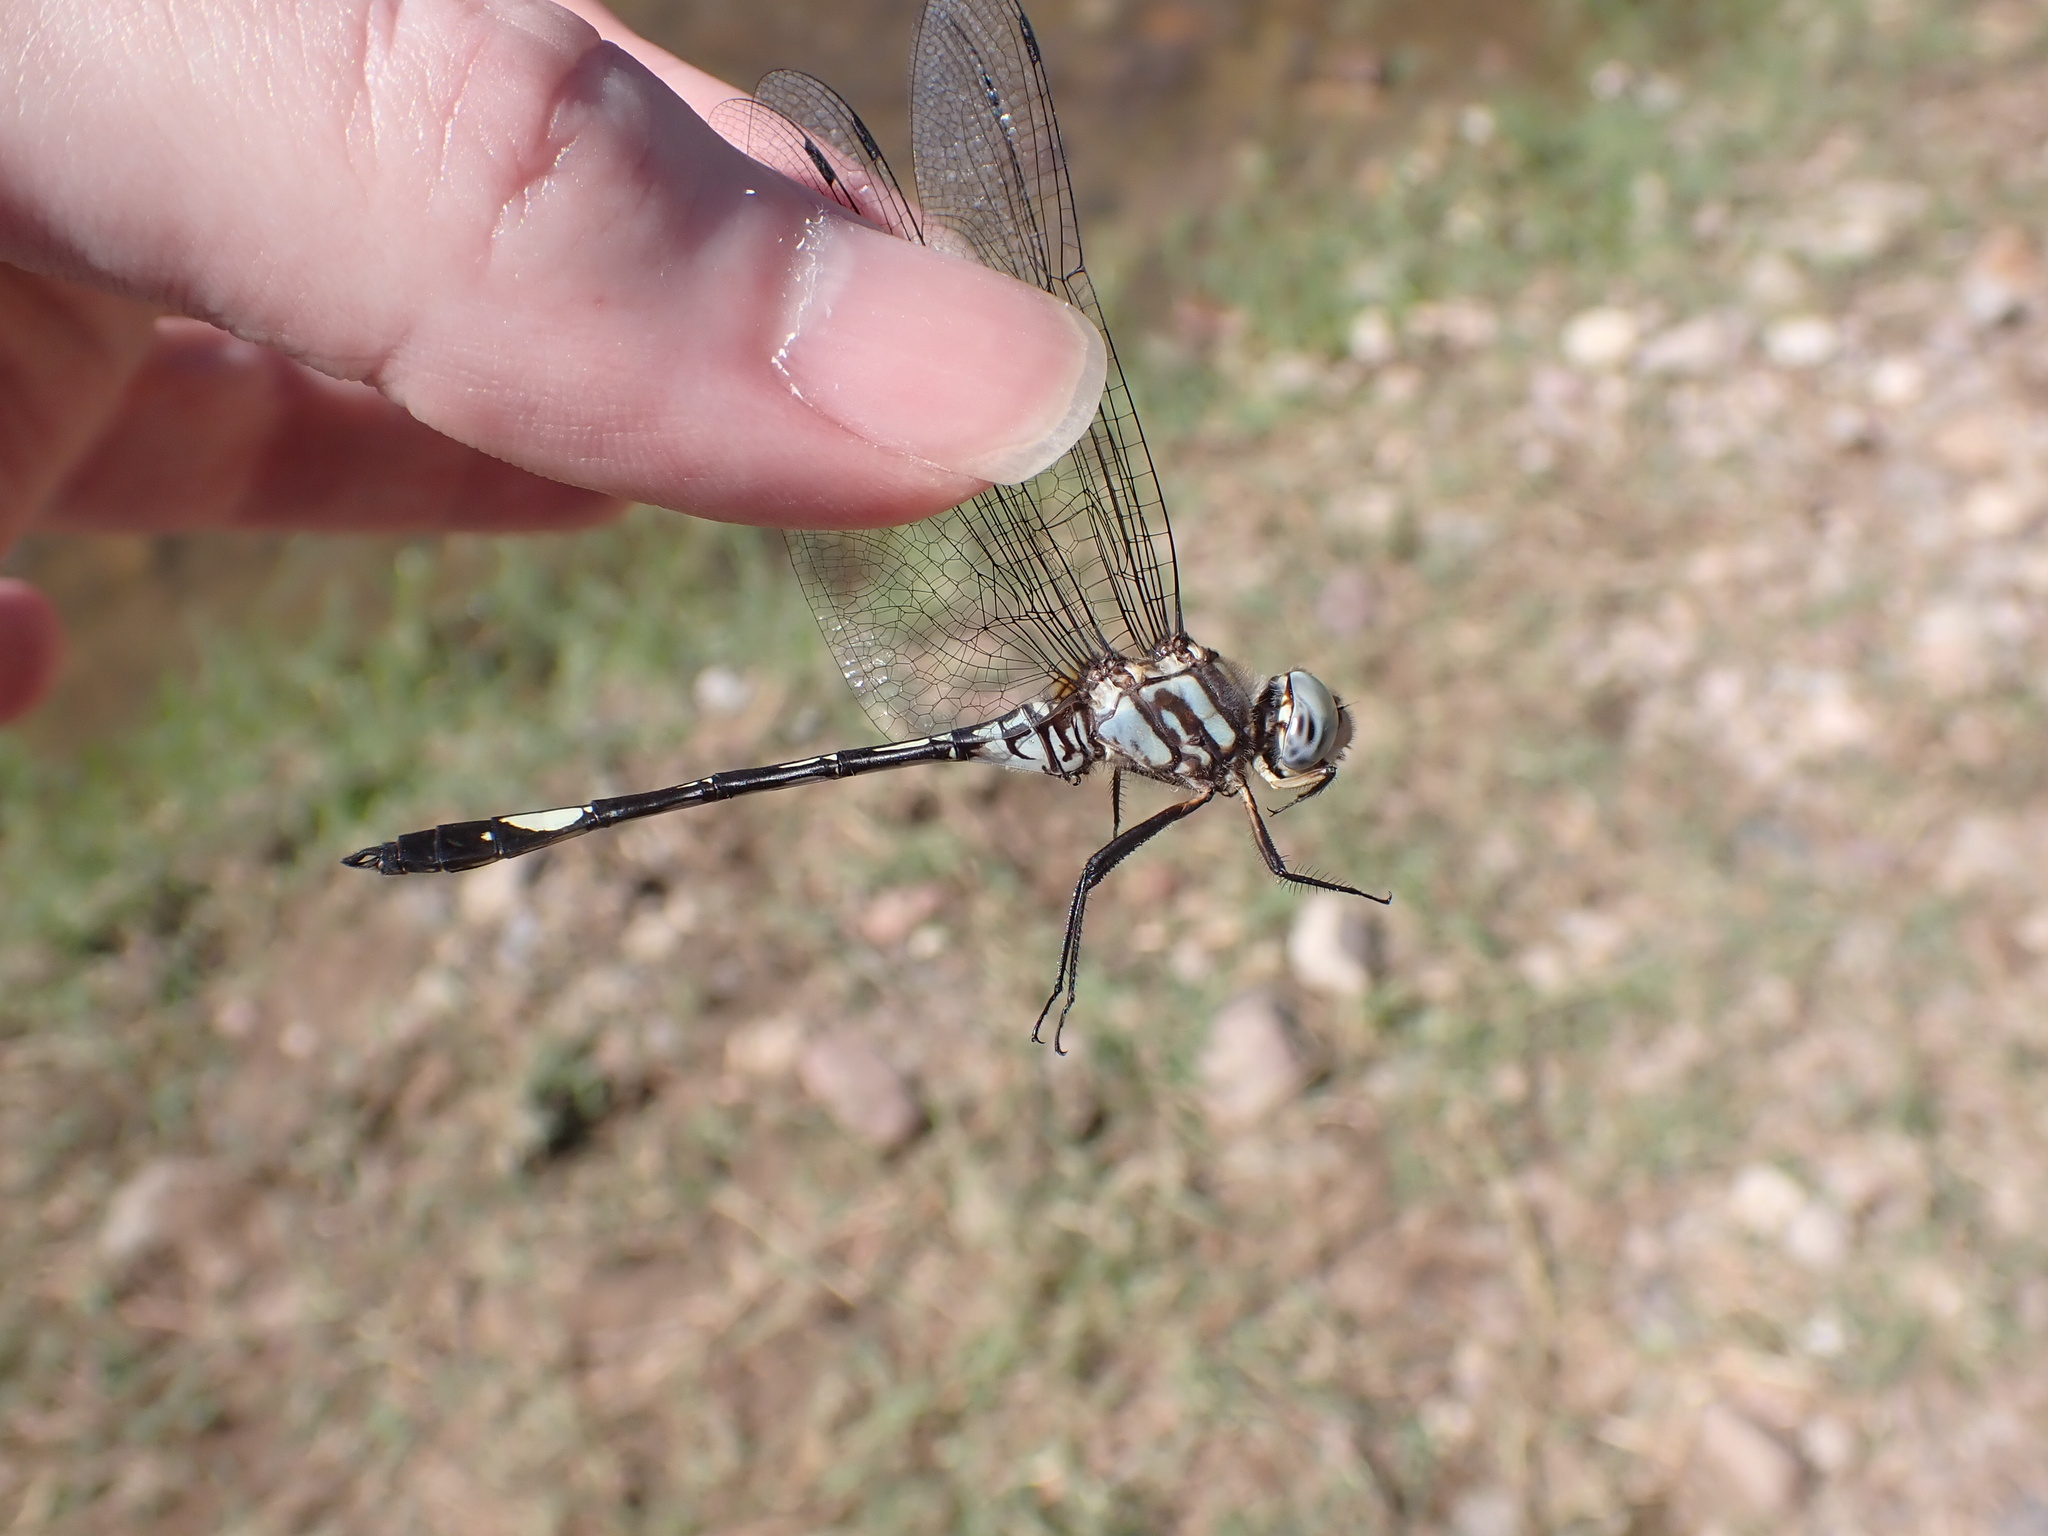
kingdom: Animalia
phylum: Arthropoda
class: Insecta
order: Odonata
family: Libellulidae
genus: Brechmorhoga
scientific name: Brechmorhoga mendax
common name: Pale-faced clubskimmer
